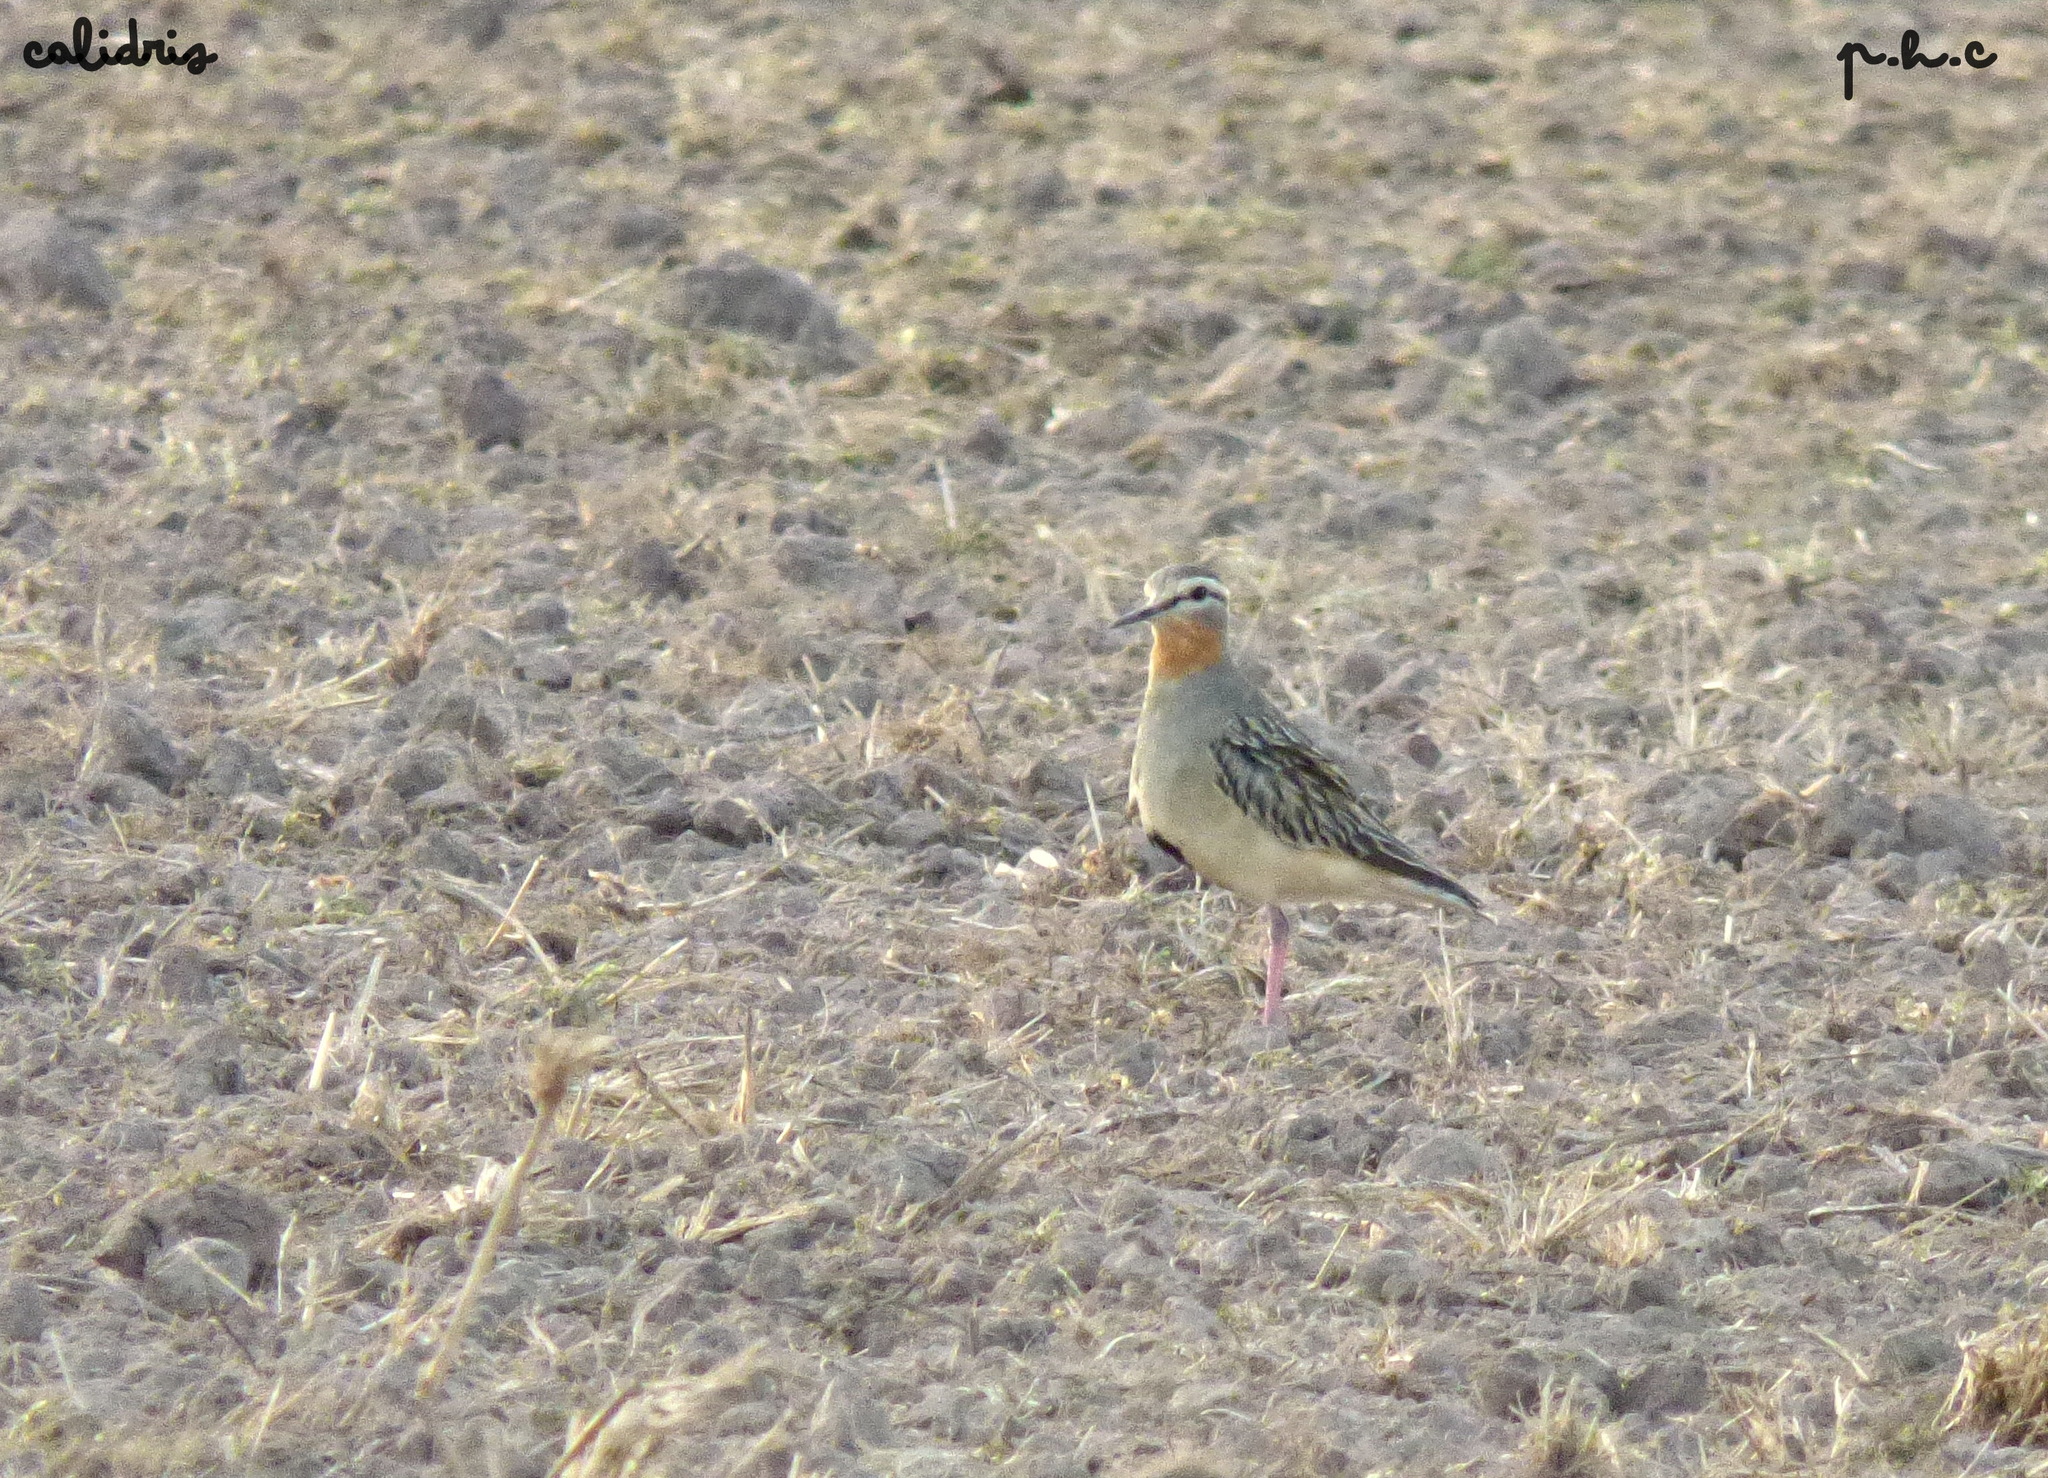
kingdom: Animalia
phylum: Chordata
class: Aves
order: Charadriiformes
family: Charadriidae
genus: Oreopholus
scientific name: Oreopholus ruficollis
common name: Tawny-throated dotterel
